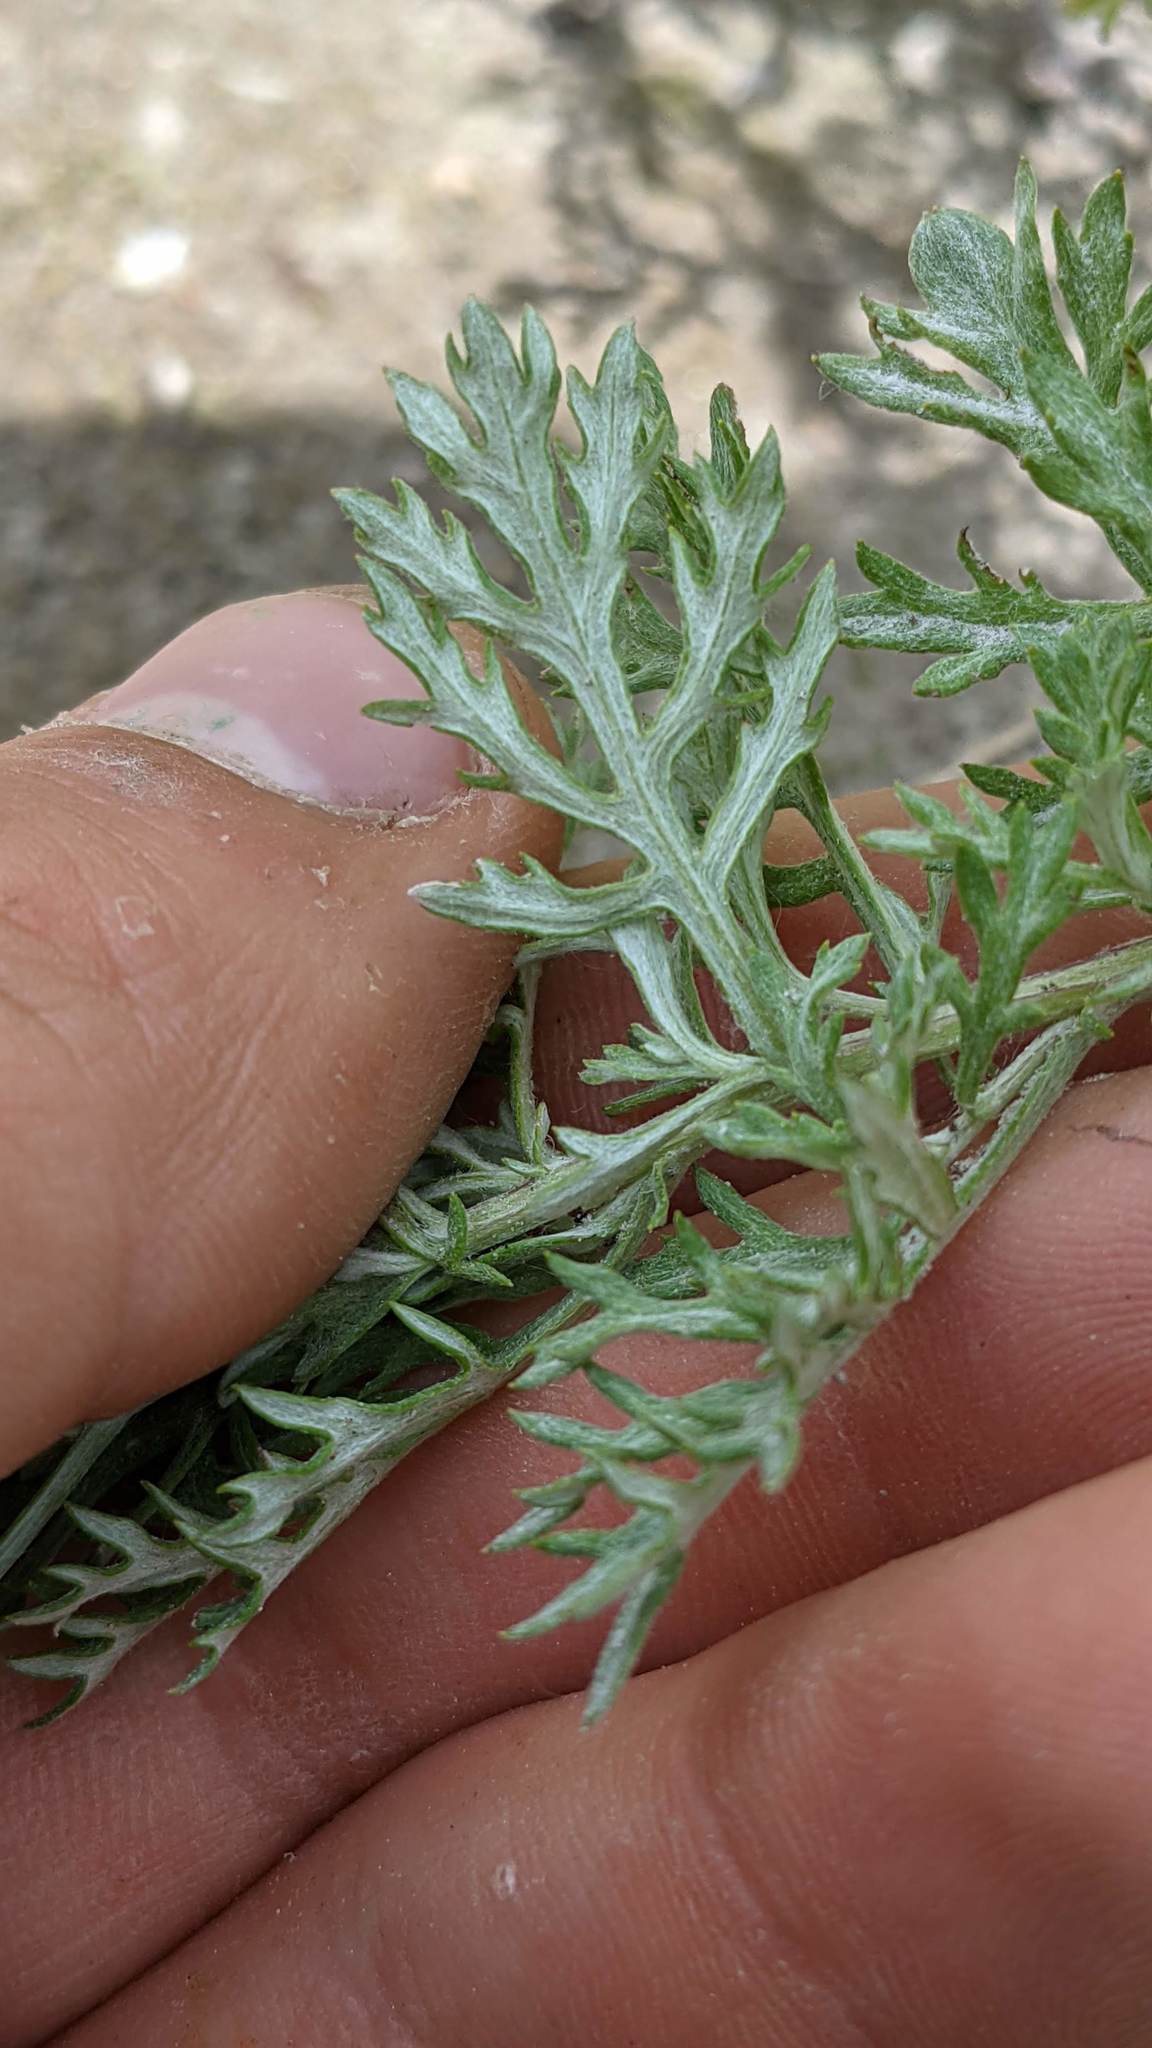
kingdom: Plantae
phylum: Tracheophyta
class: Magnoliopsida
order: Asterales
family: Asteraceae
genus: Artemisia
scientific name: Artemisia michauxiana
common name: Lemon sagewort
